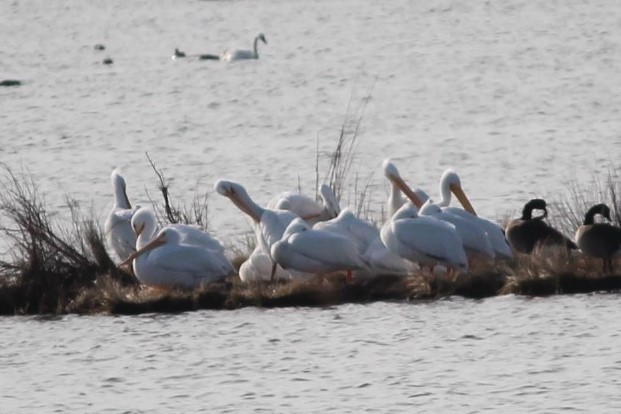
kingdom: Animalia
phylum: Chordata
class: Aves
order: Pelecaniformes
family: Pelecanidae
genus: Pelecanus
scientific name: Pelecanus erythrorhynchos
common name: American white pelican
